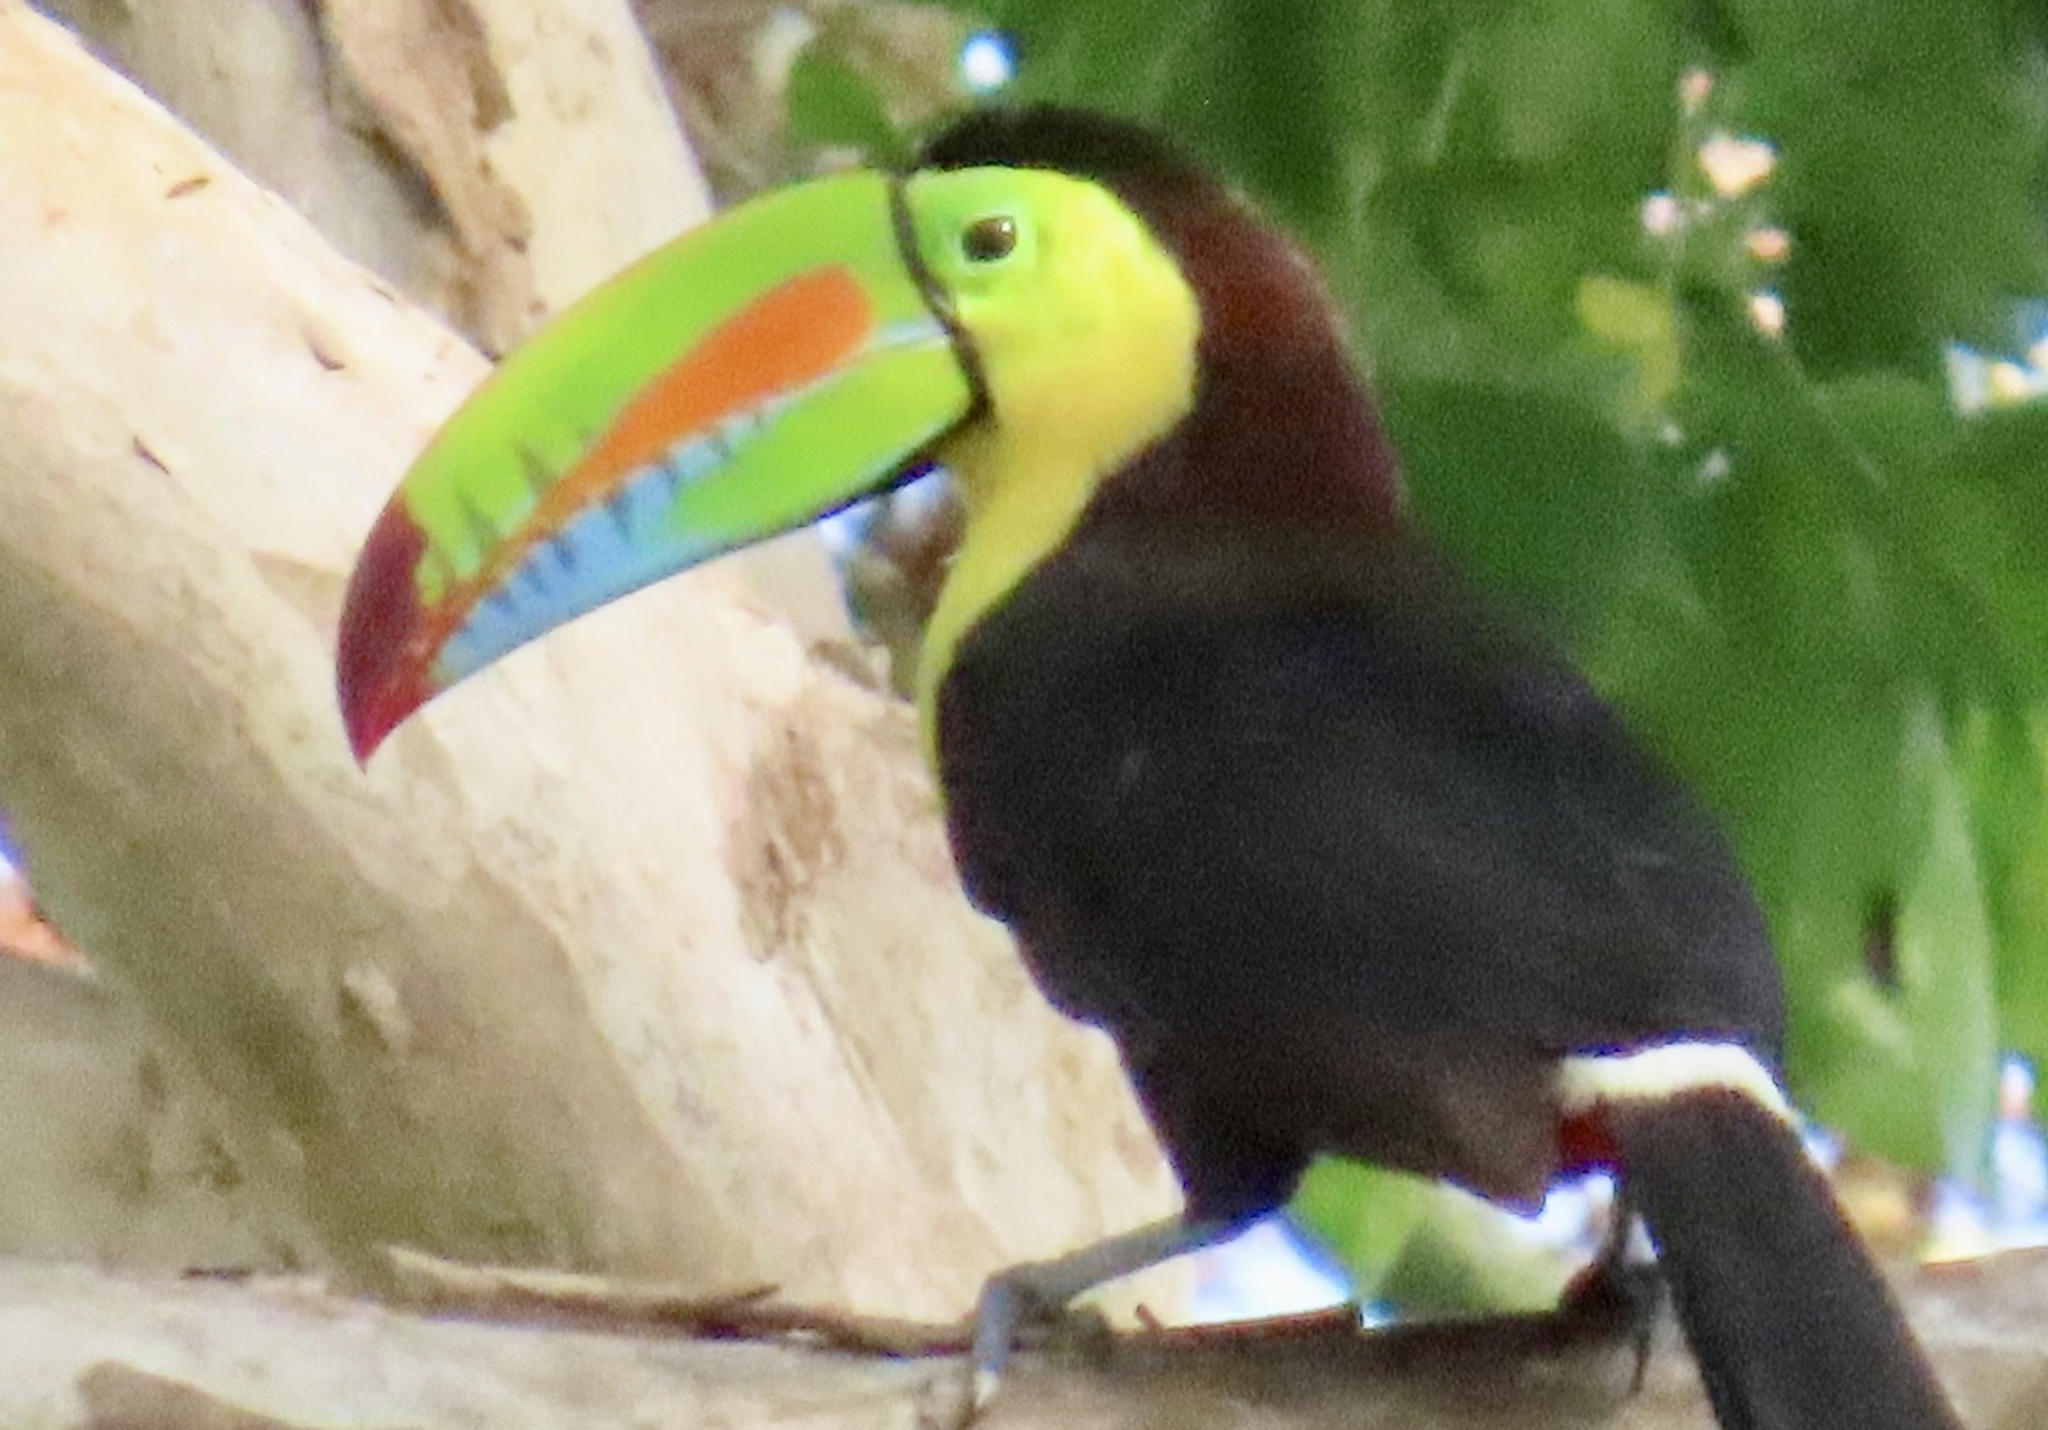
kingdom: Animalia
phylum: Chordata
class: Aves
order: Piciformes
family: Ramphastidae
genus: Ramphastos
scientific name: Ramphastos sulfuratus
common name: Keel-billed toucan
